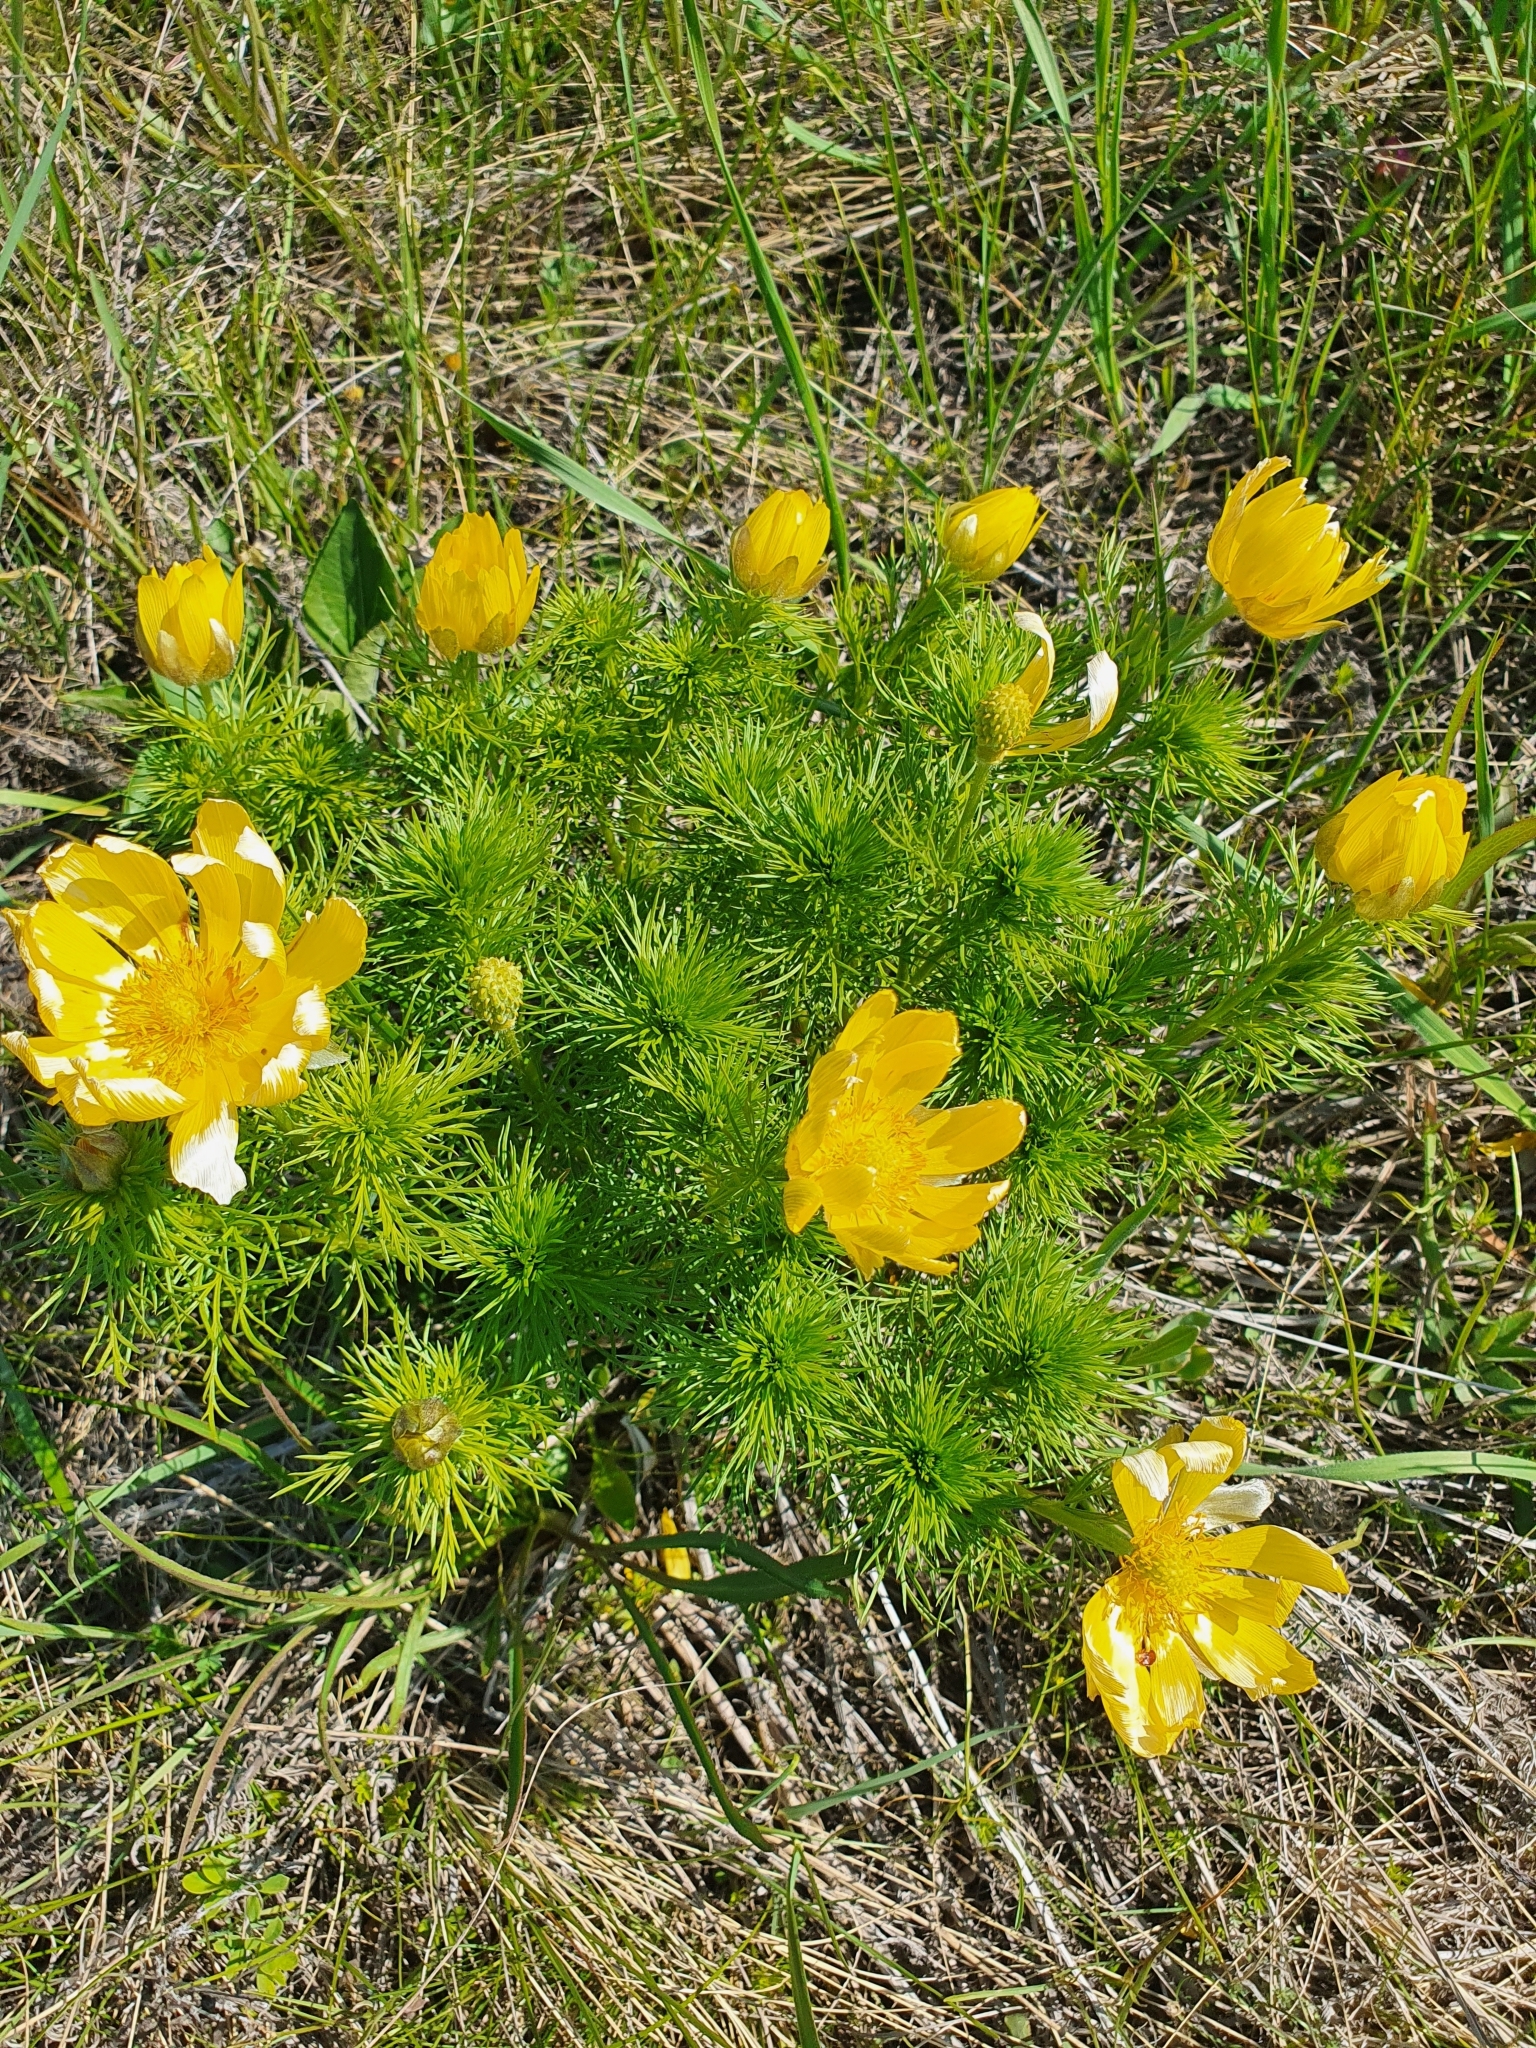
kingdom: Plantae
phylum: Tracheophyta
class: Magnoliopsida
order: Ranunculales
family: Ranunculaceae
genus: Adonis
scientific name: Adonis vernalis
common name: Yellow pheasants-eye
